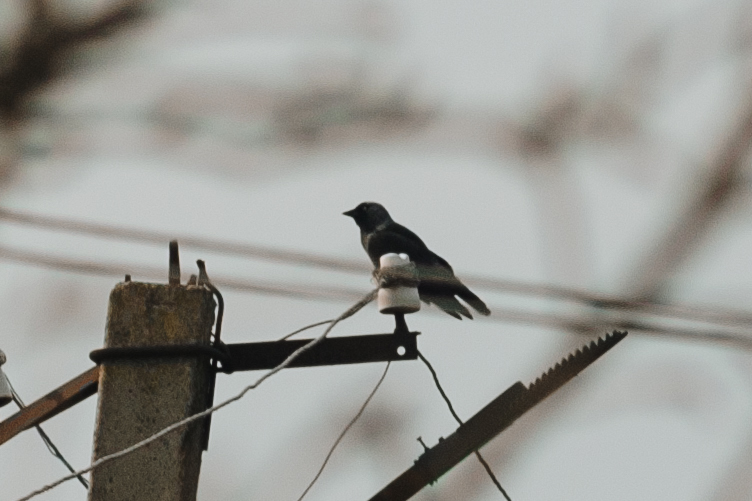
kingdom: Animalia
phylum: Chordata
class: Aves
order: Passeriformes
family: Corvidae
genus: Coloeus
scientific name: Coloeus monedula
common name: Western jackdaw
